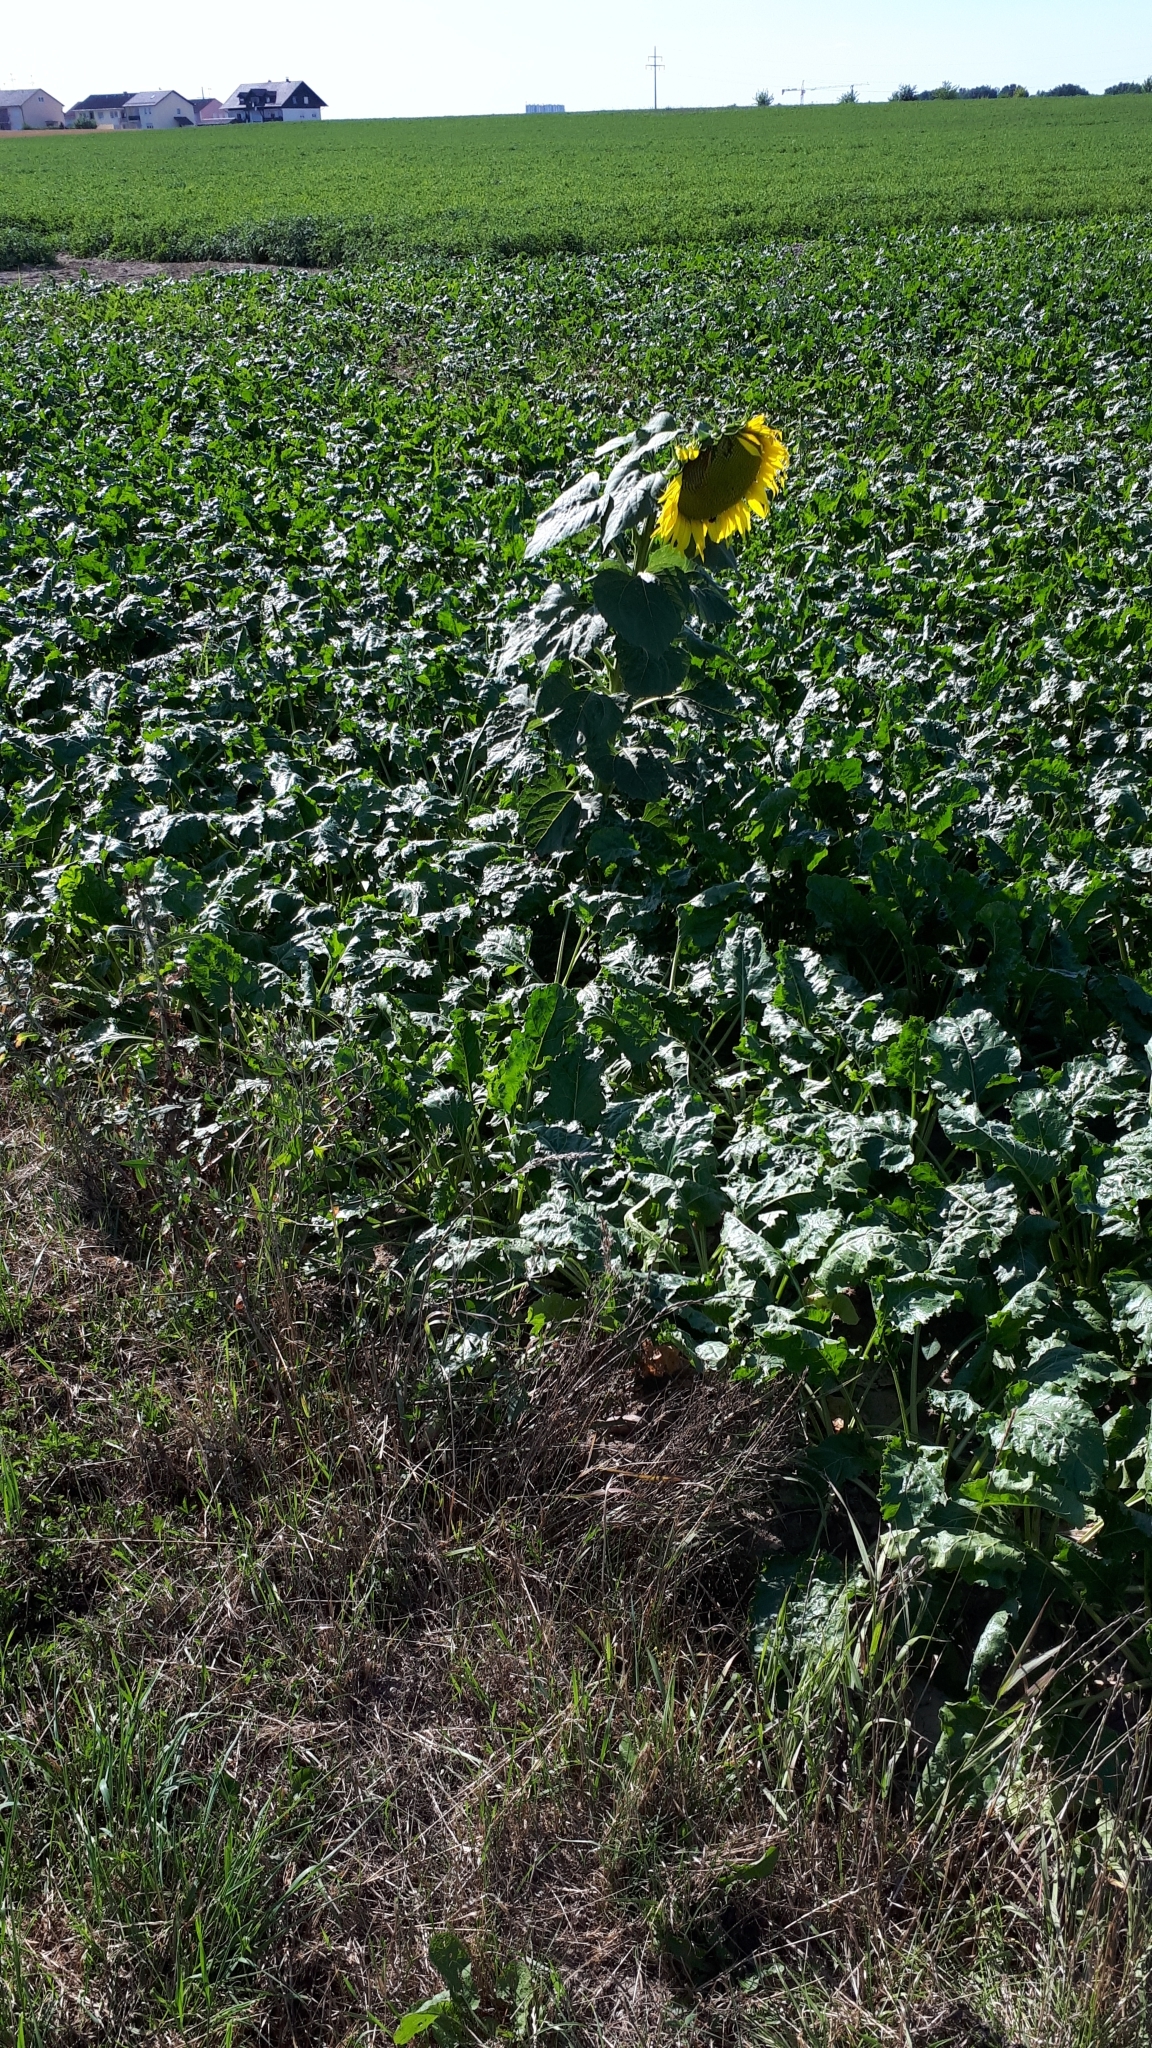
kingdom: Plantae
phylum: Tracheophyta
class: Magnoliopsida
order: Asterales
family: Asteraceae
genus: Helianthus
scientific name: Helianthus annuus
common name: Sunflower
